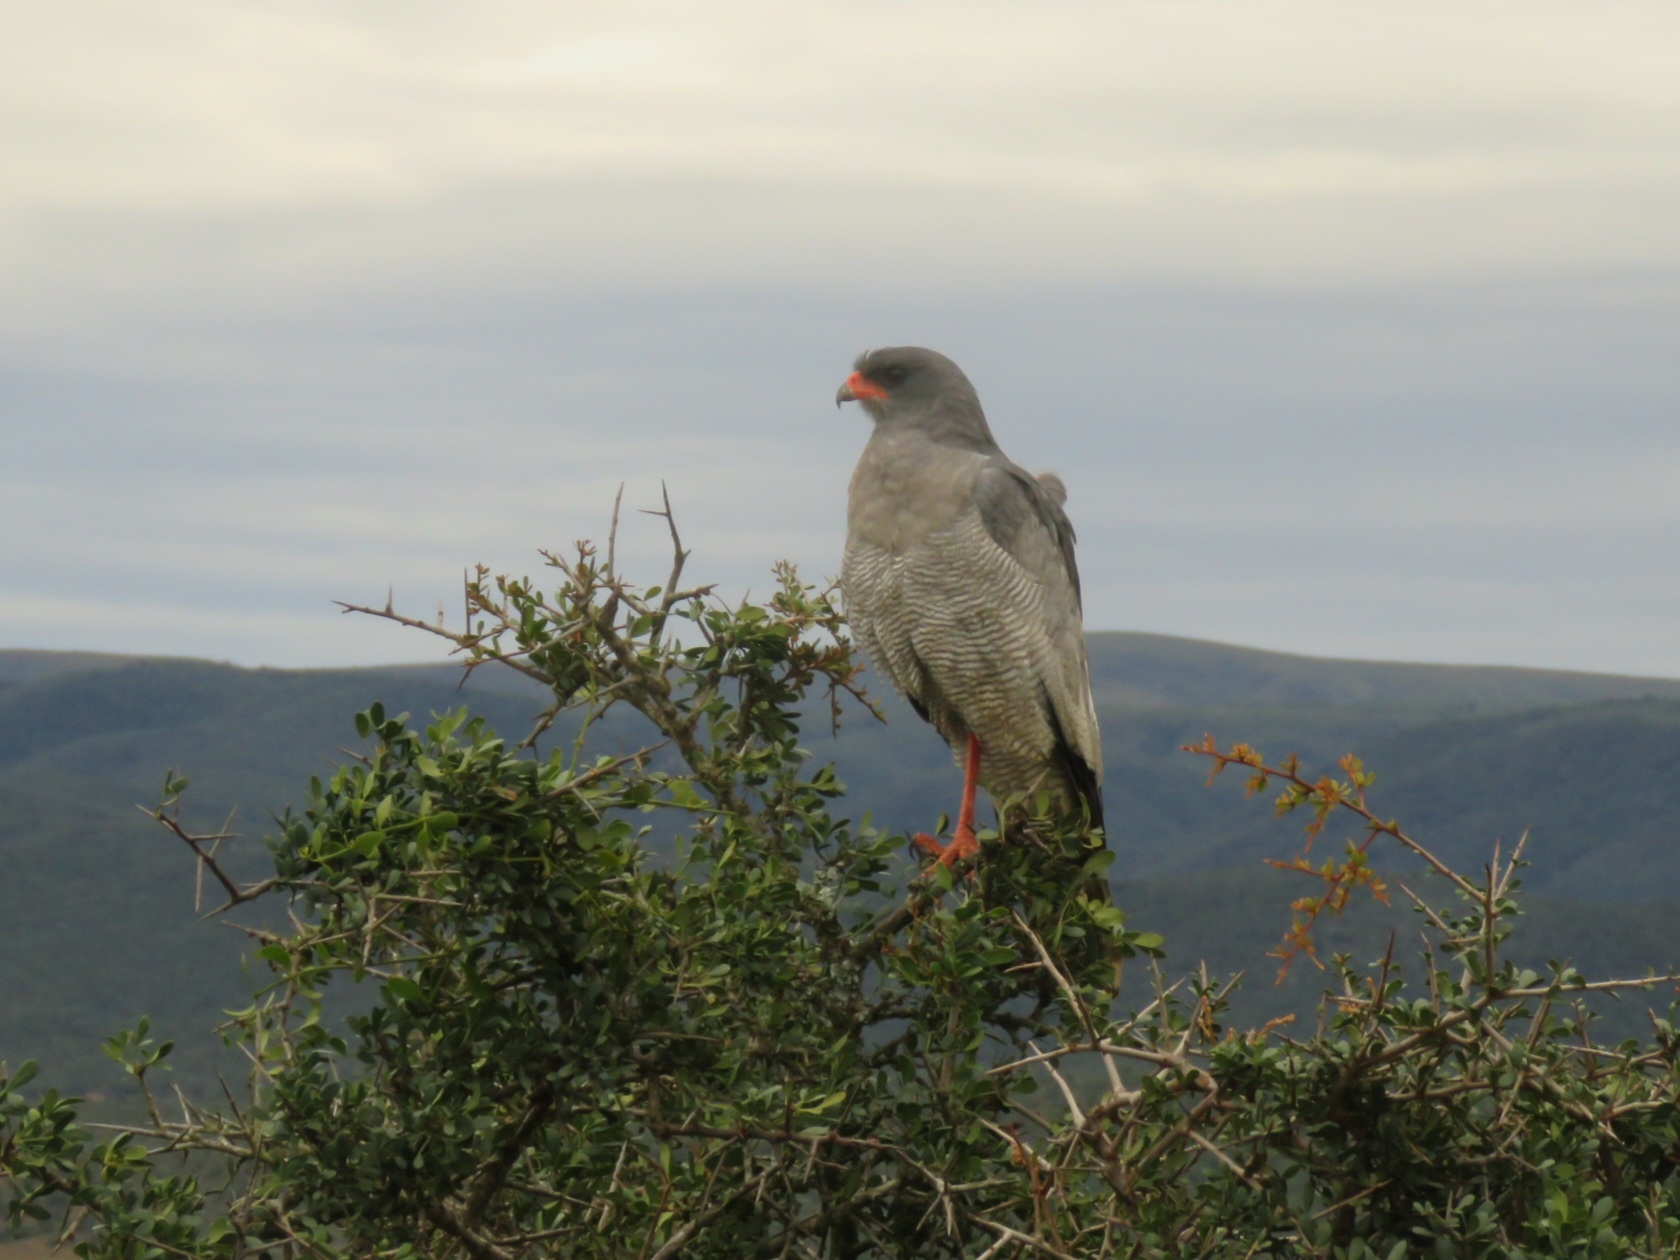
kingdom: Animalia
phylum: Chordata
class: Aves
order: Accipitriformes
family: Accipitridae
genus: Melierax
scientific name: Melierax canorus
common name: Pale chanting-goshawk
